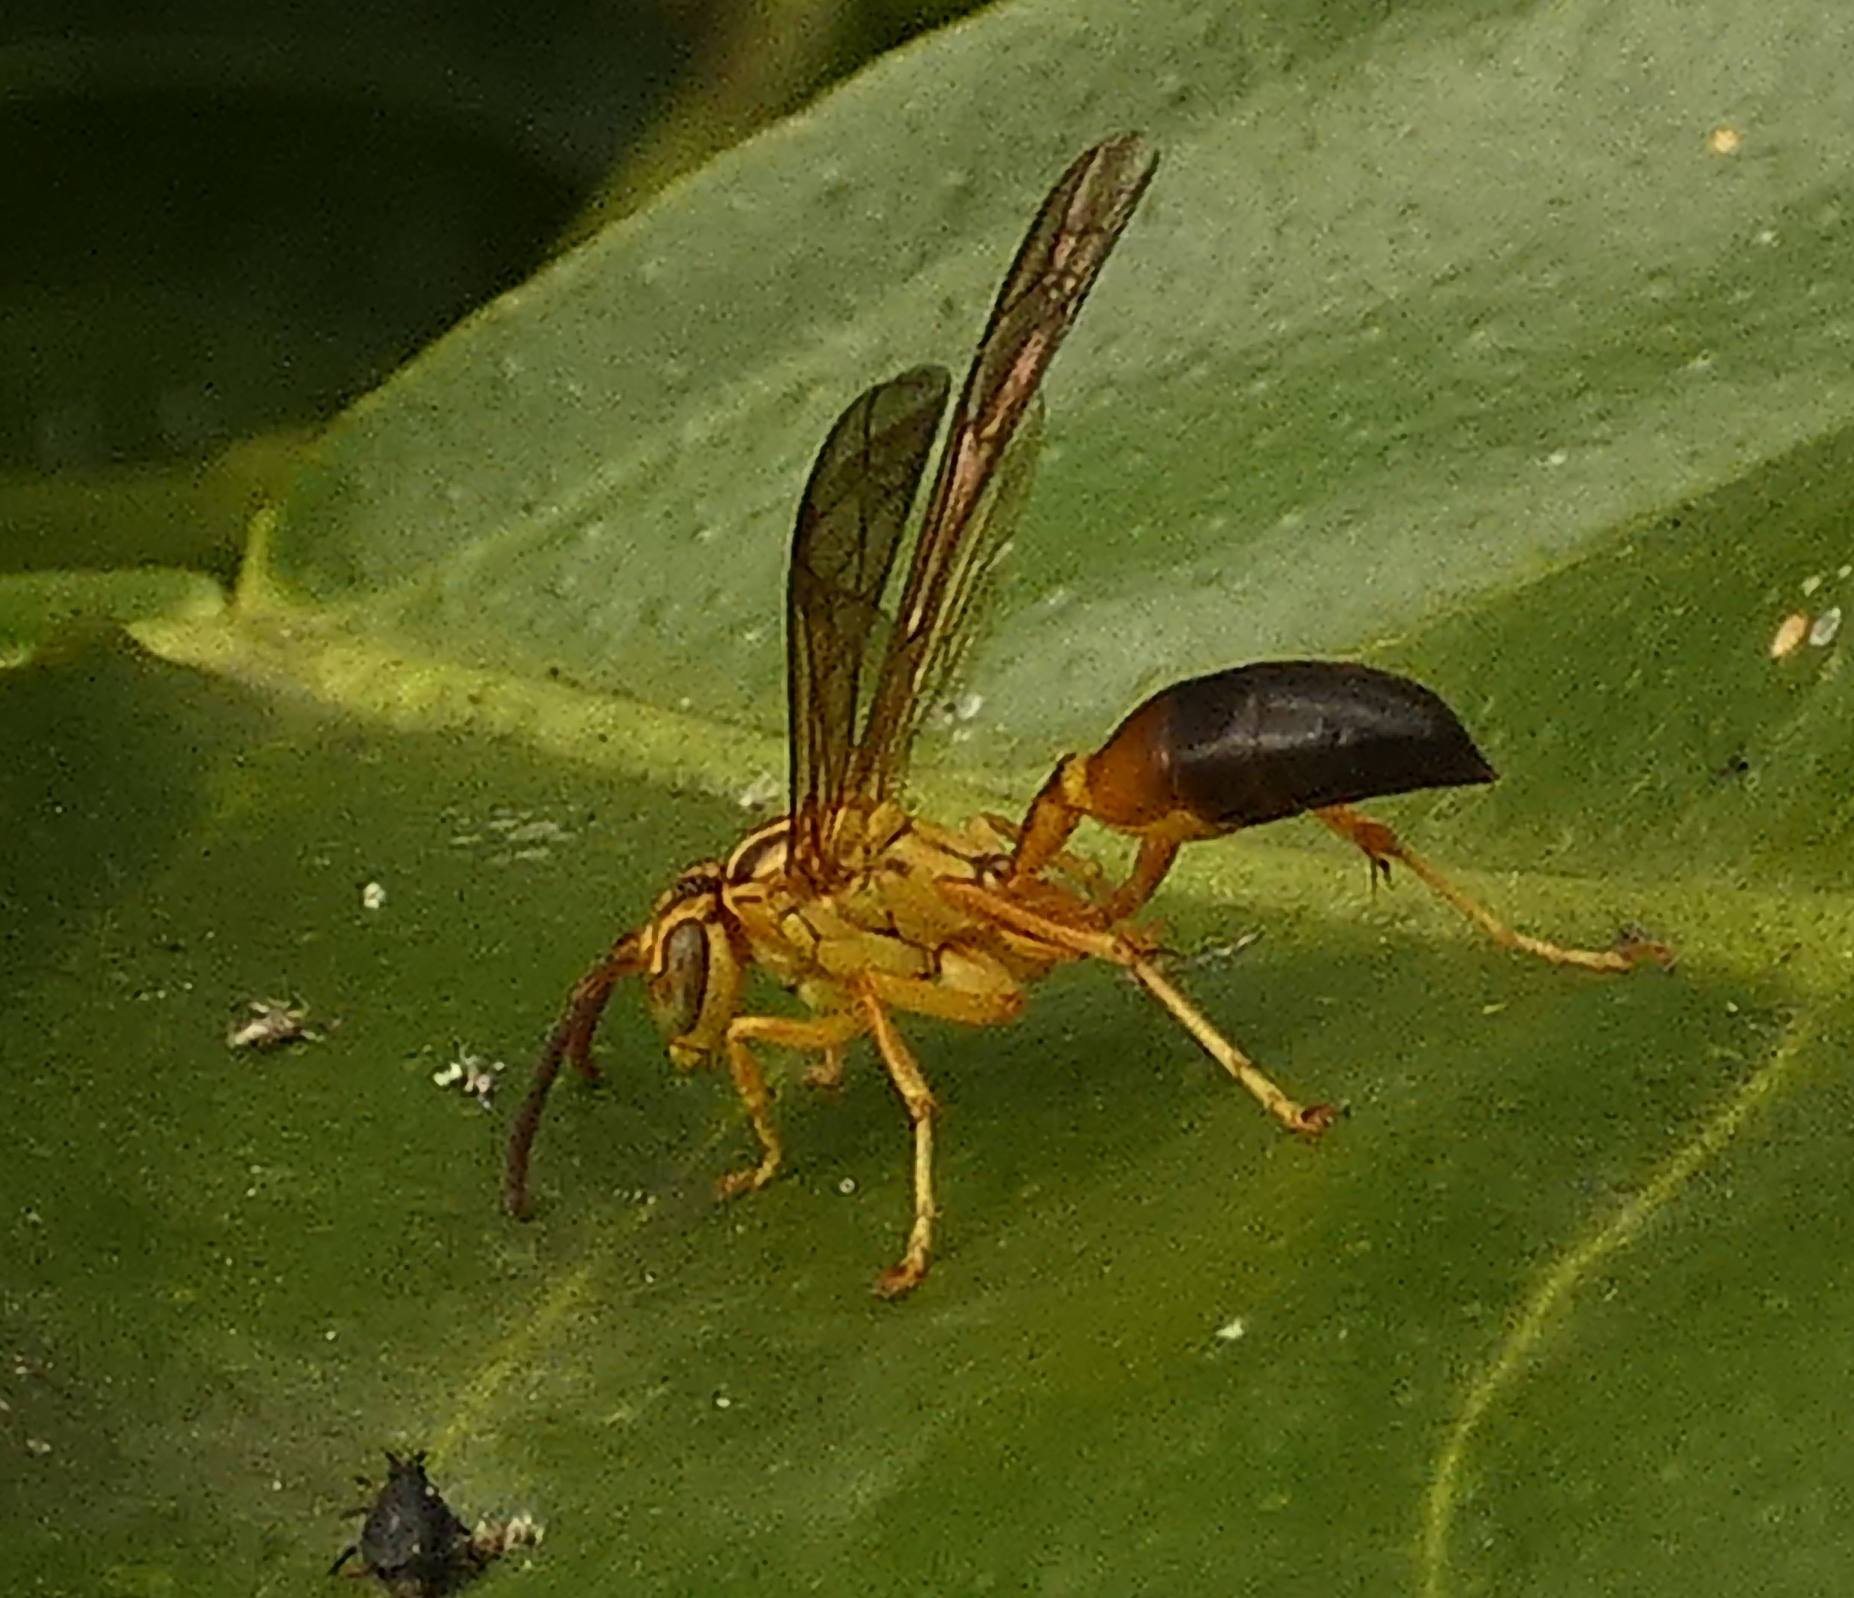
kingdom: Animalia
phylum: Arthropoda
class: Insecta
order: Hymenoptera
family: Vespidae
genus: Agelaia
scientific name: Agelaia pallipes
